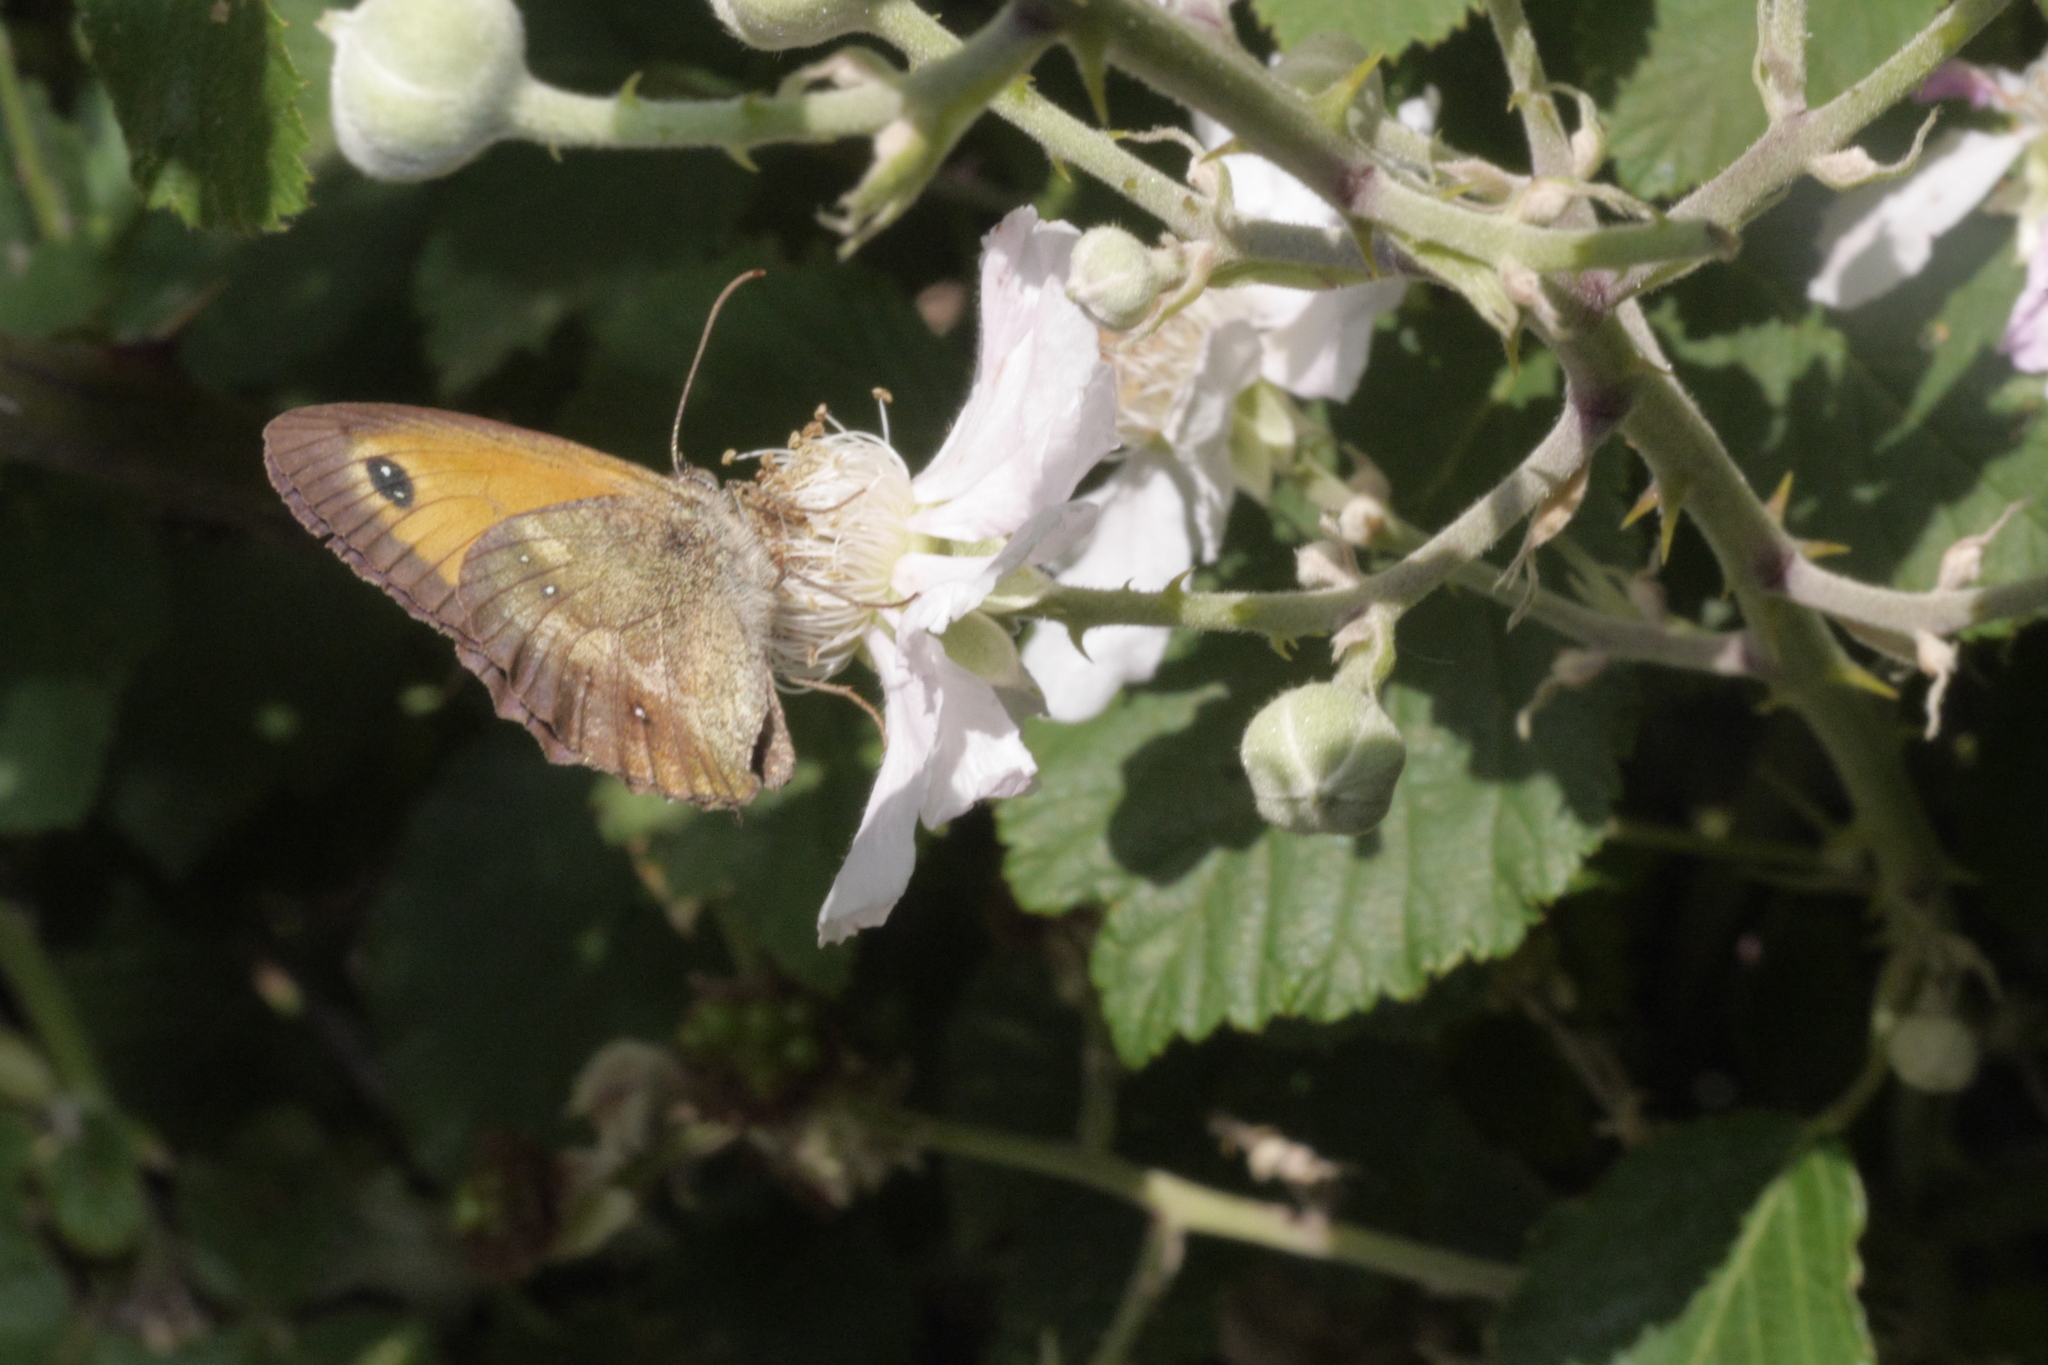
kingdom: Animalia
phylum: Arthropoda
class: Insecta
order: Lepidoptera
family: Nymphalidae
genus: Pyronia
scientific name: Pyronia tithonus
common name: Gatekeeper
